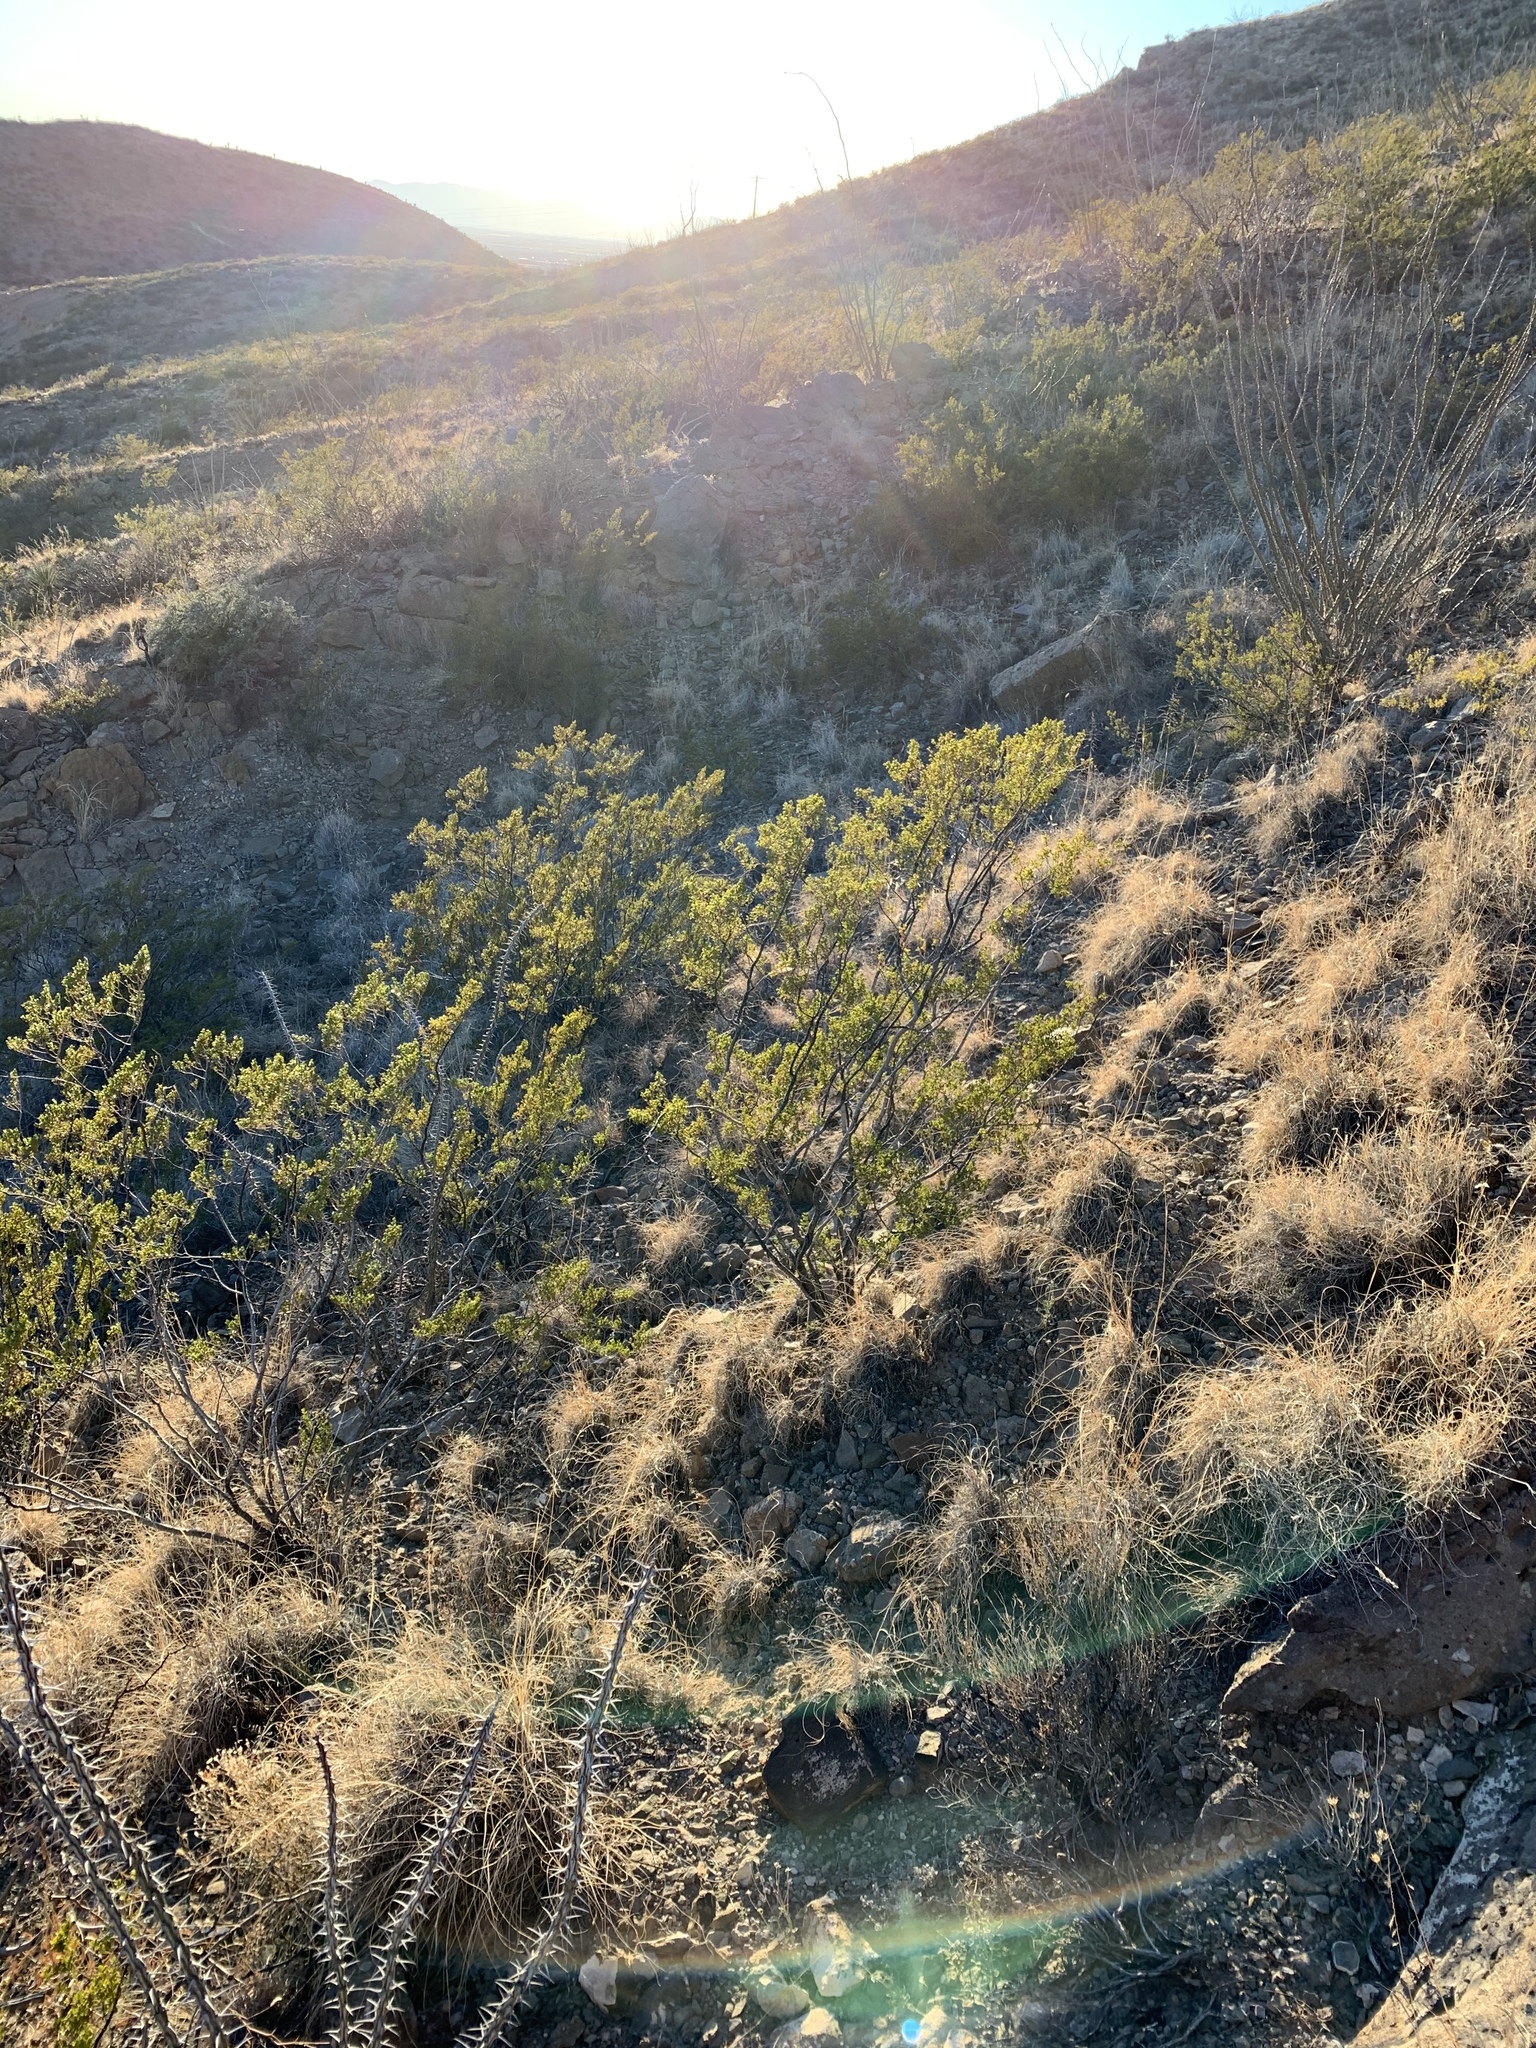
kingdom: Plantae
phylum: Tracheophyta
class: Magnoliopsida
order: Zygophyllales
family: Zygophyllaceae
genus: Larrea
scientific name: Larrea tridentata
